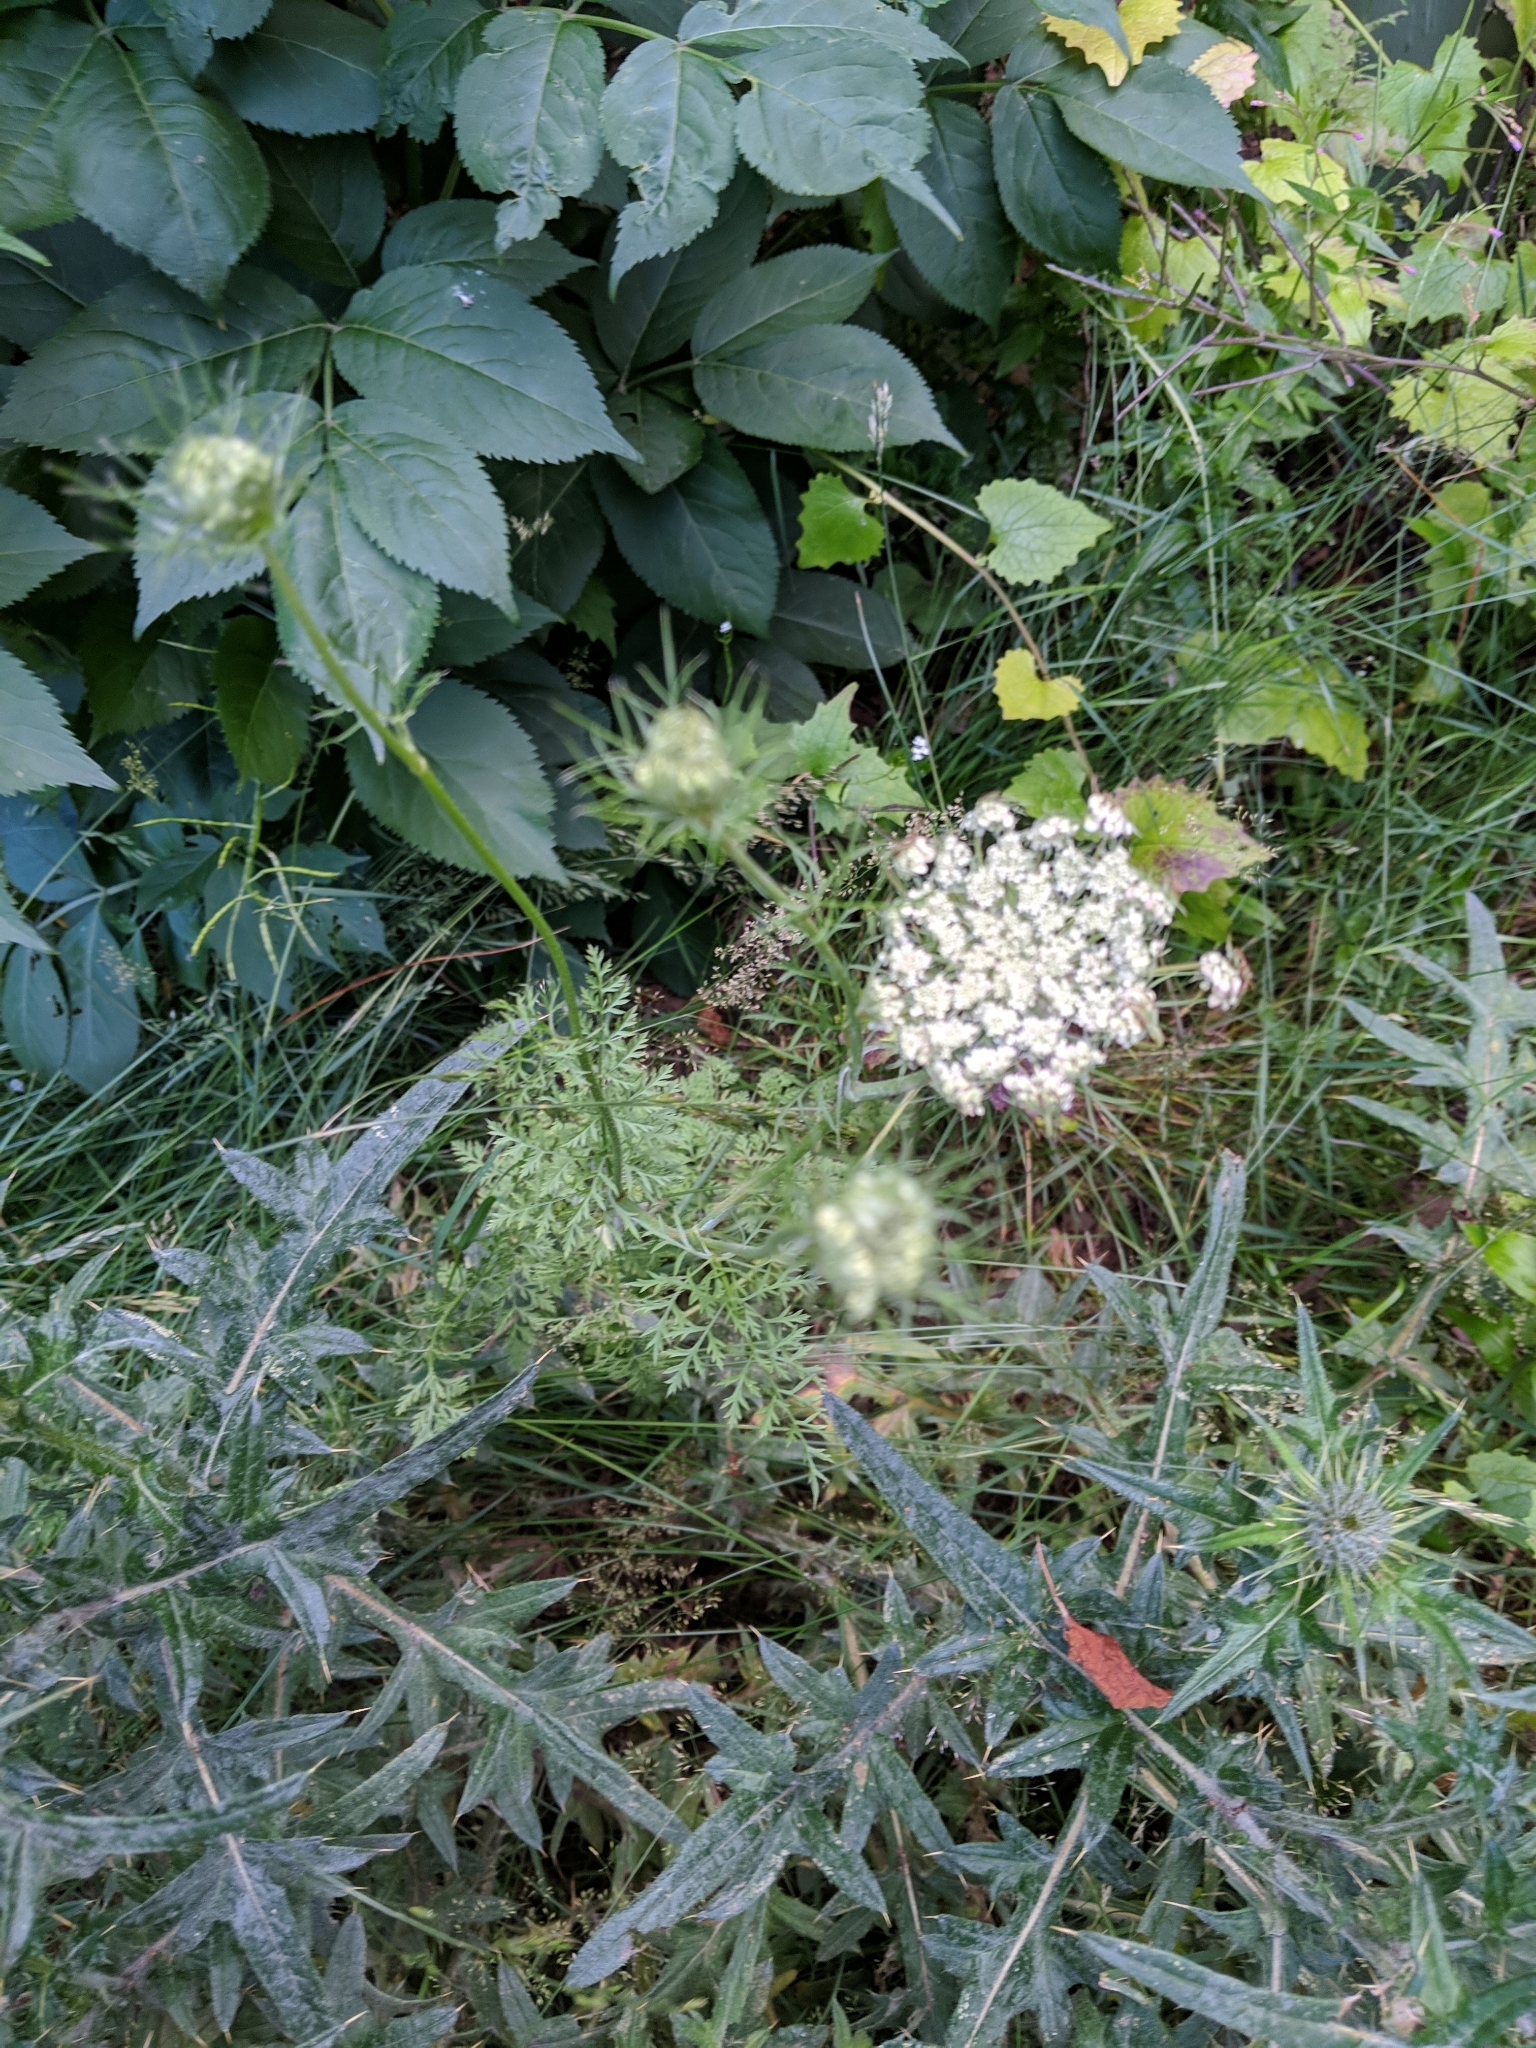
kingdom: Plantae
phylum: Tracheophyta
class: Magnoliopsida
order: Apiales
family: Apiaceae
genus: Daucus
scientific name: Daucus carota
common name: Wild carrot
